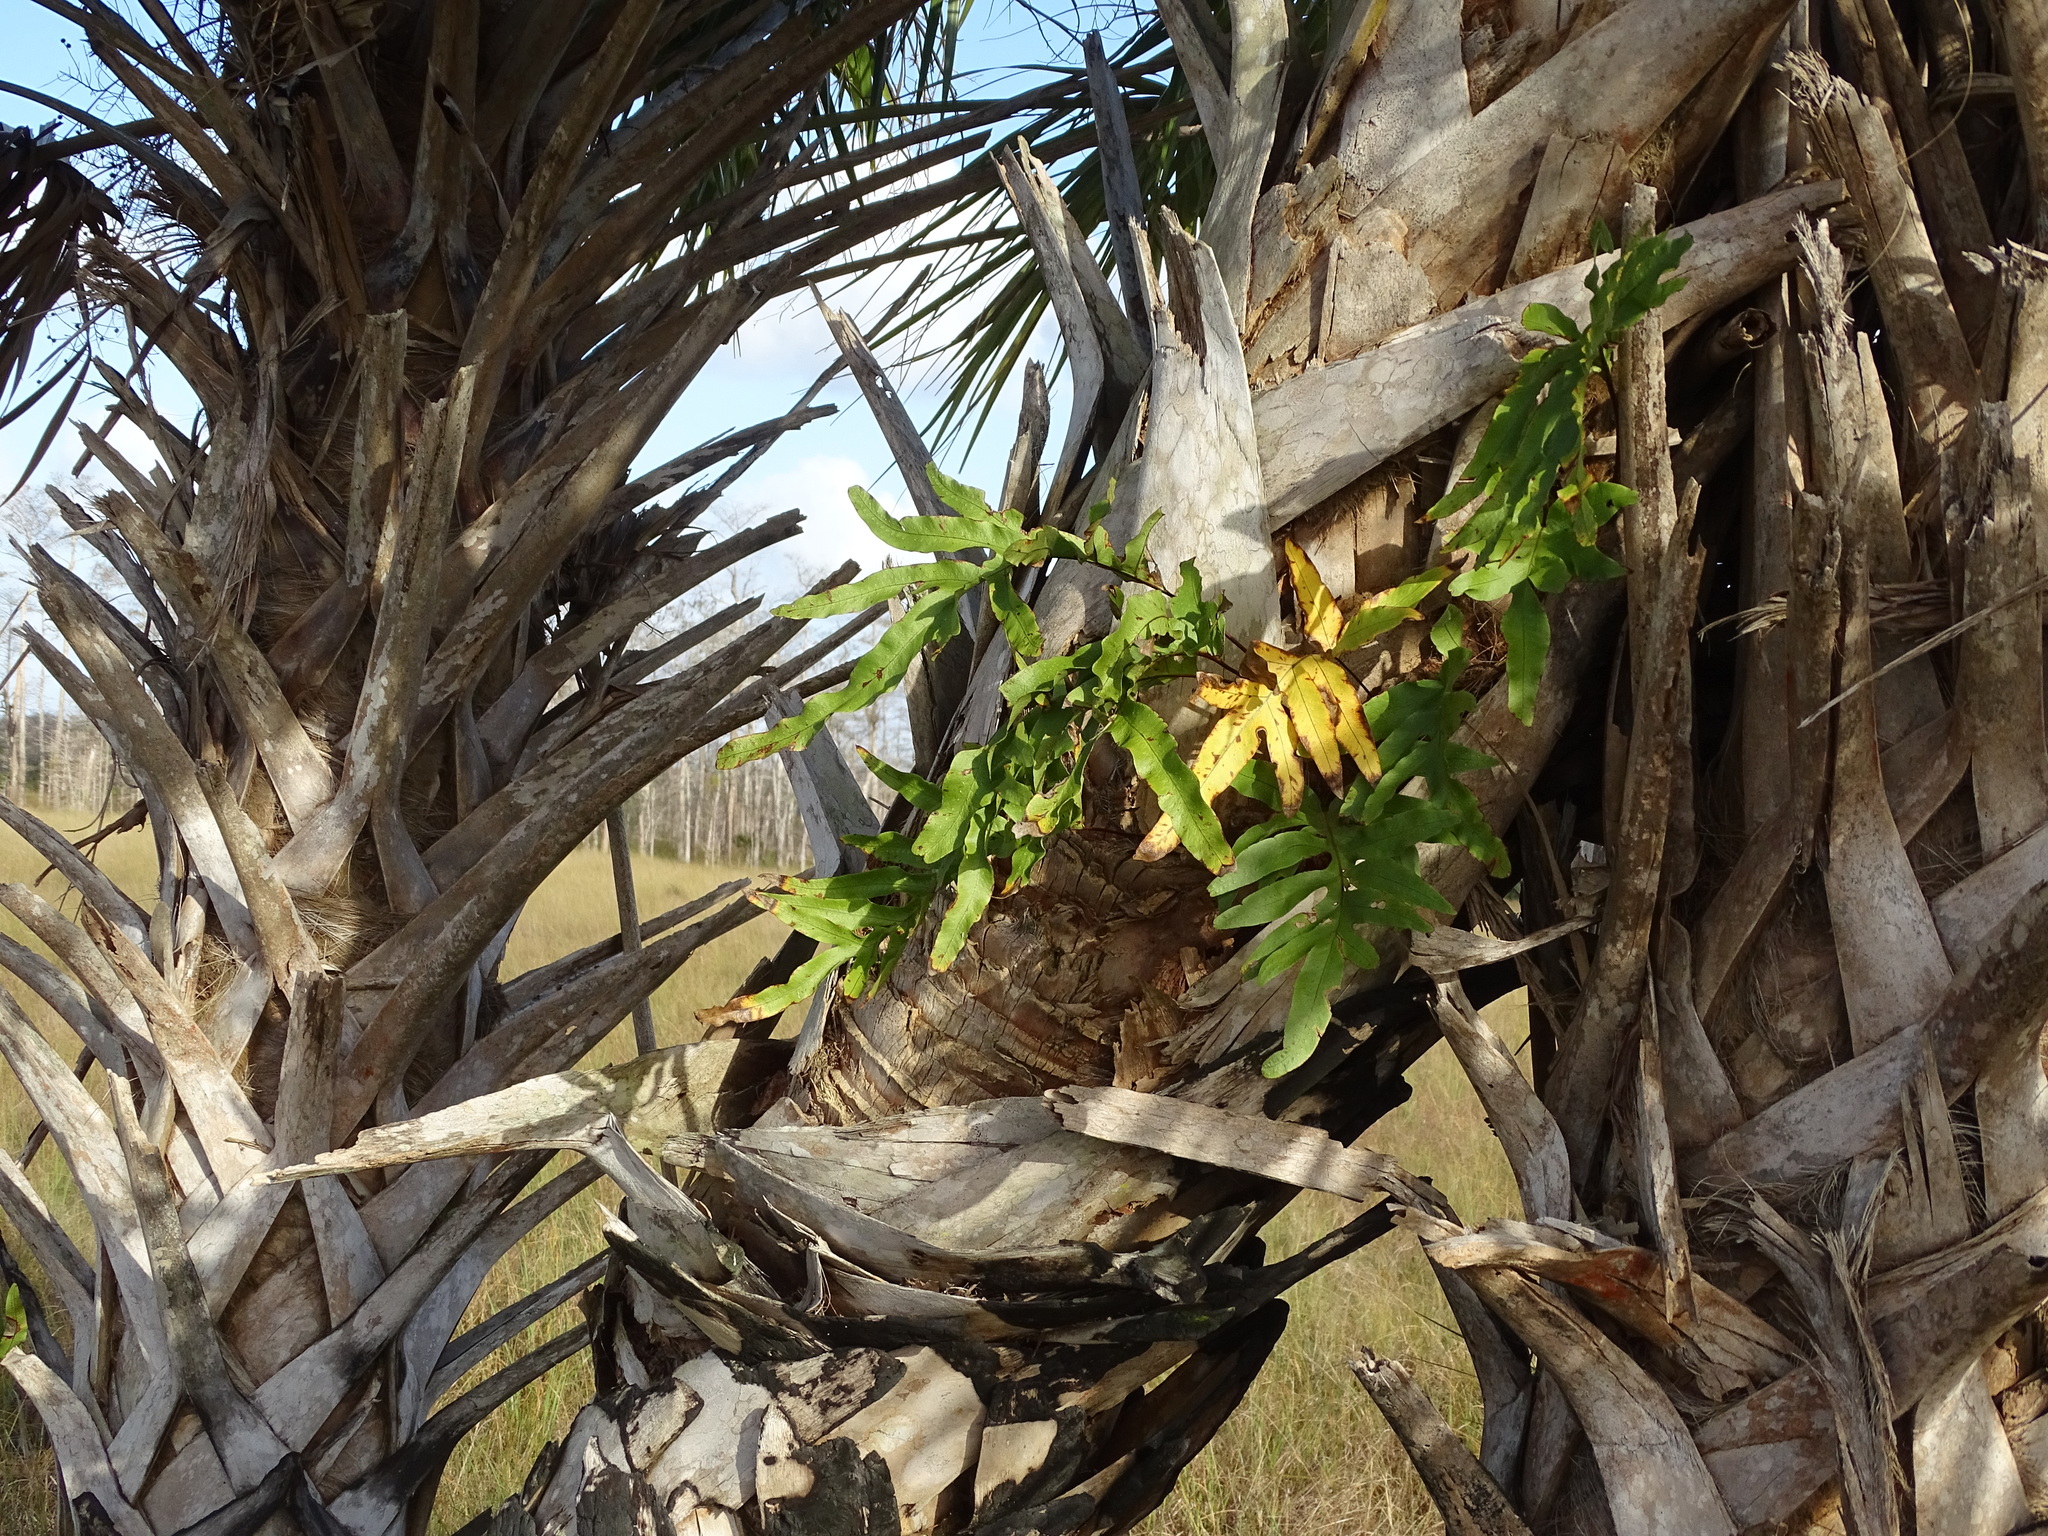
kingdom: Plantae
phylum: Tracheophyta
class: Polypodiopsida
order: Polypodiales
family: Polypodiaceae
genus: Phlebodium
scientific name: Phlebodium aureum
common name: Gold-foot fern
